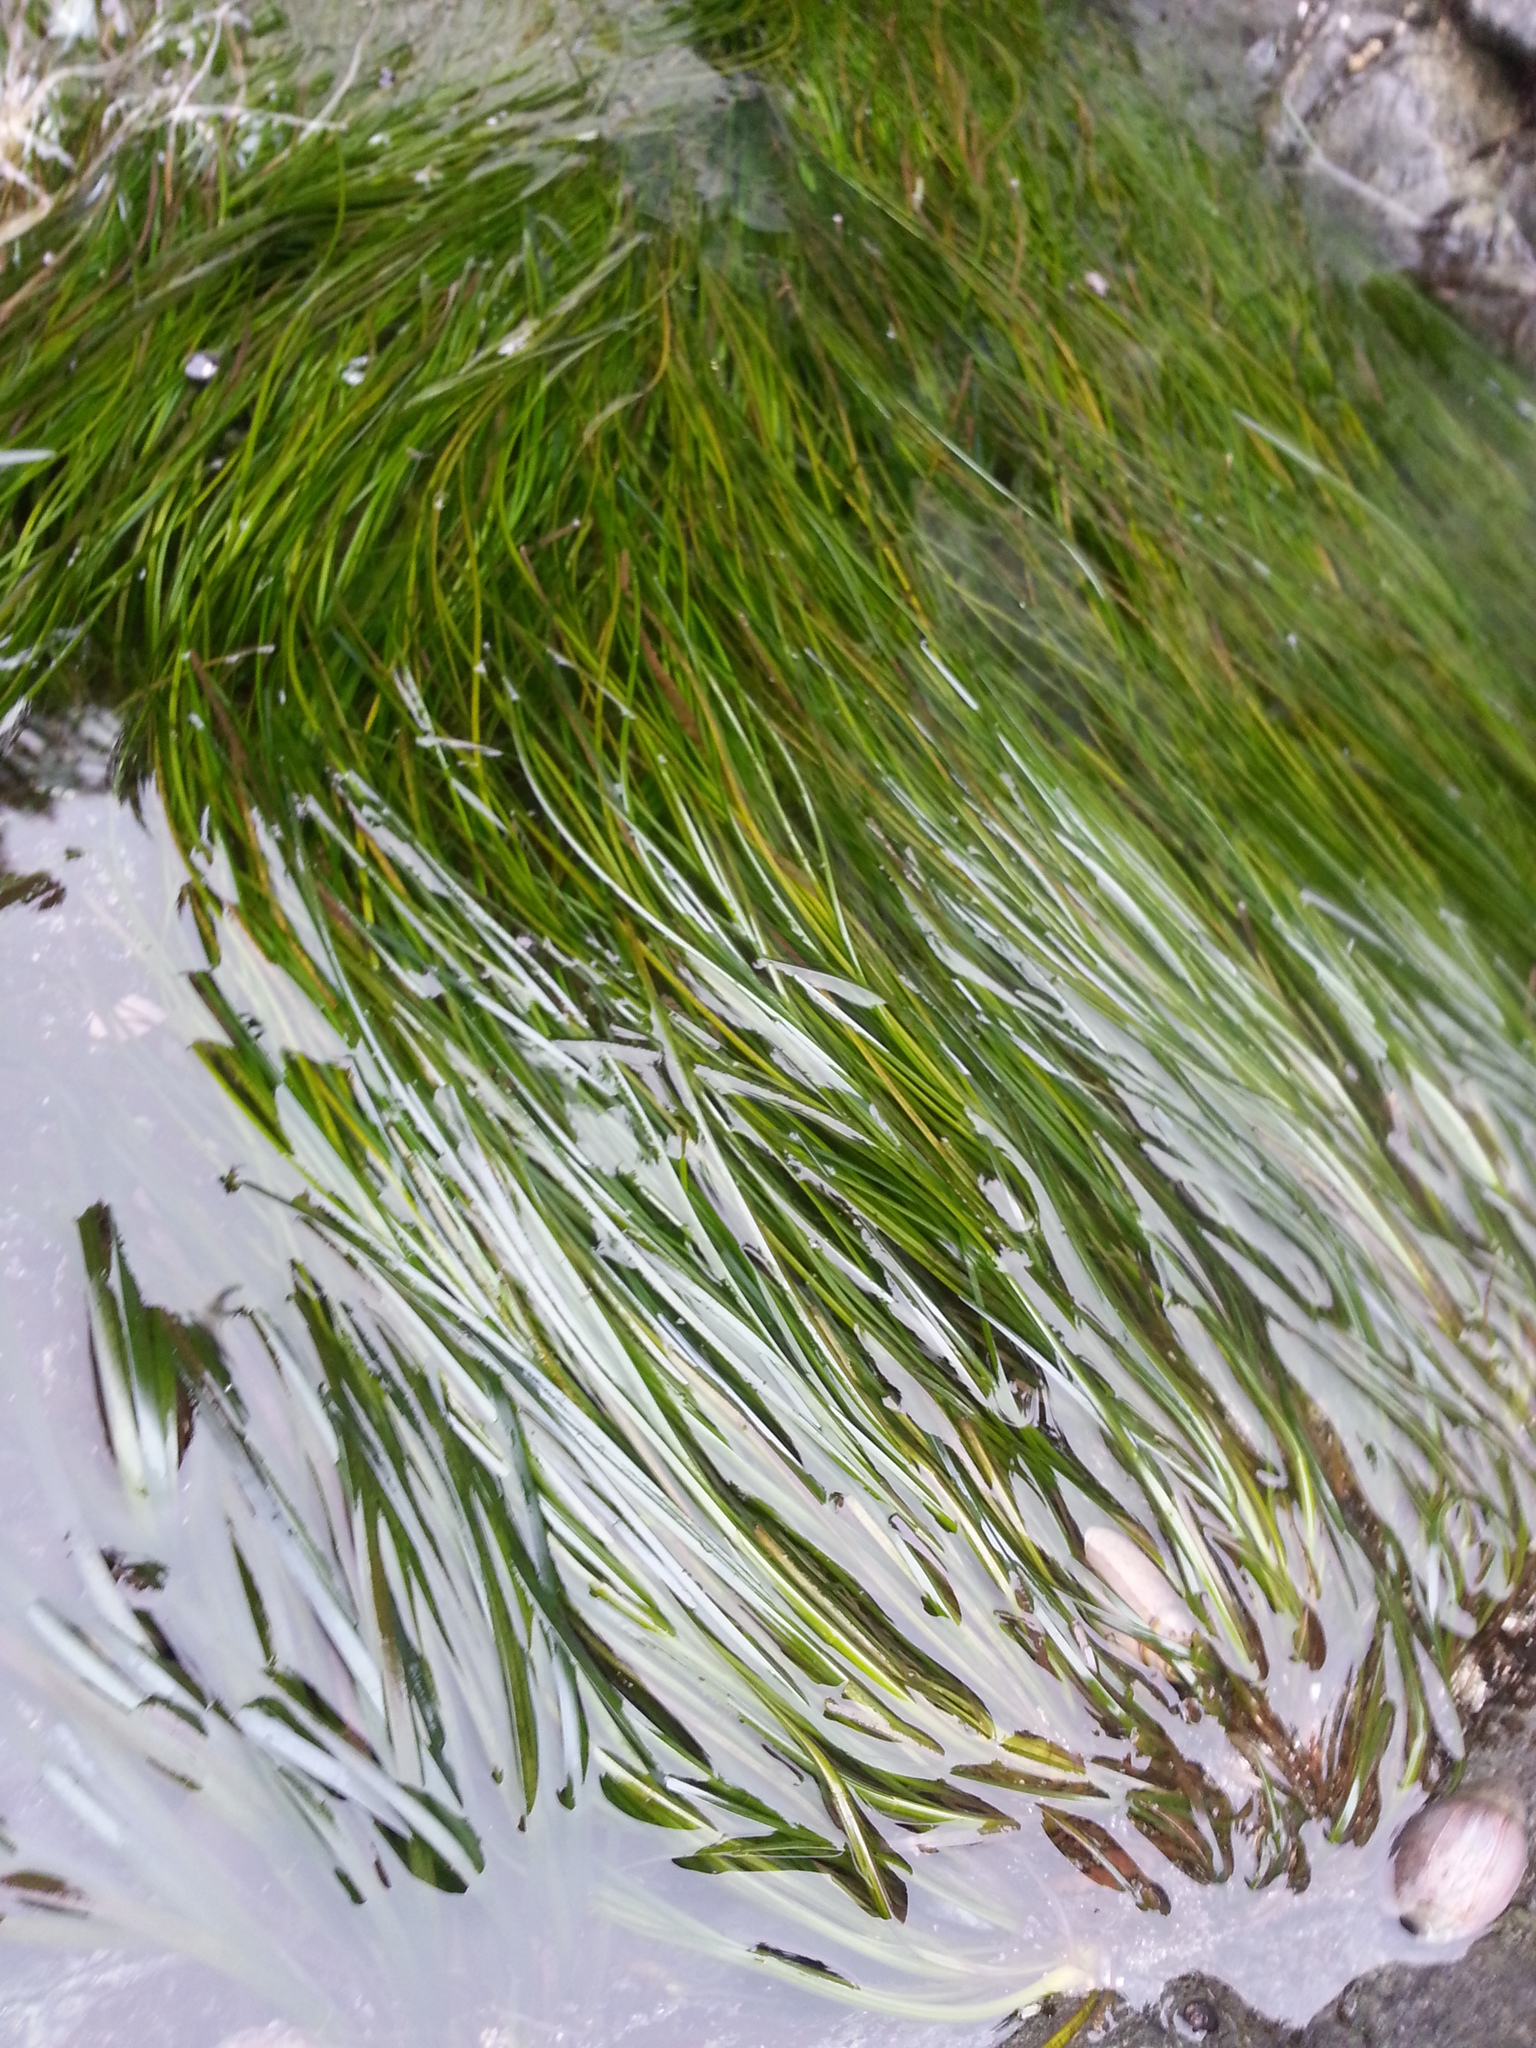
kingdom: Plantae
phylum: Tracheophyta
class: Liliopsida
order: Alismatales
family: Zosteraceae
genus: Phyllospadix
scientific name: Phyllospadix torreyi
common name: Surfgrass
